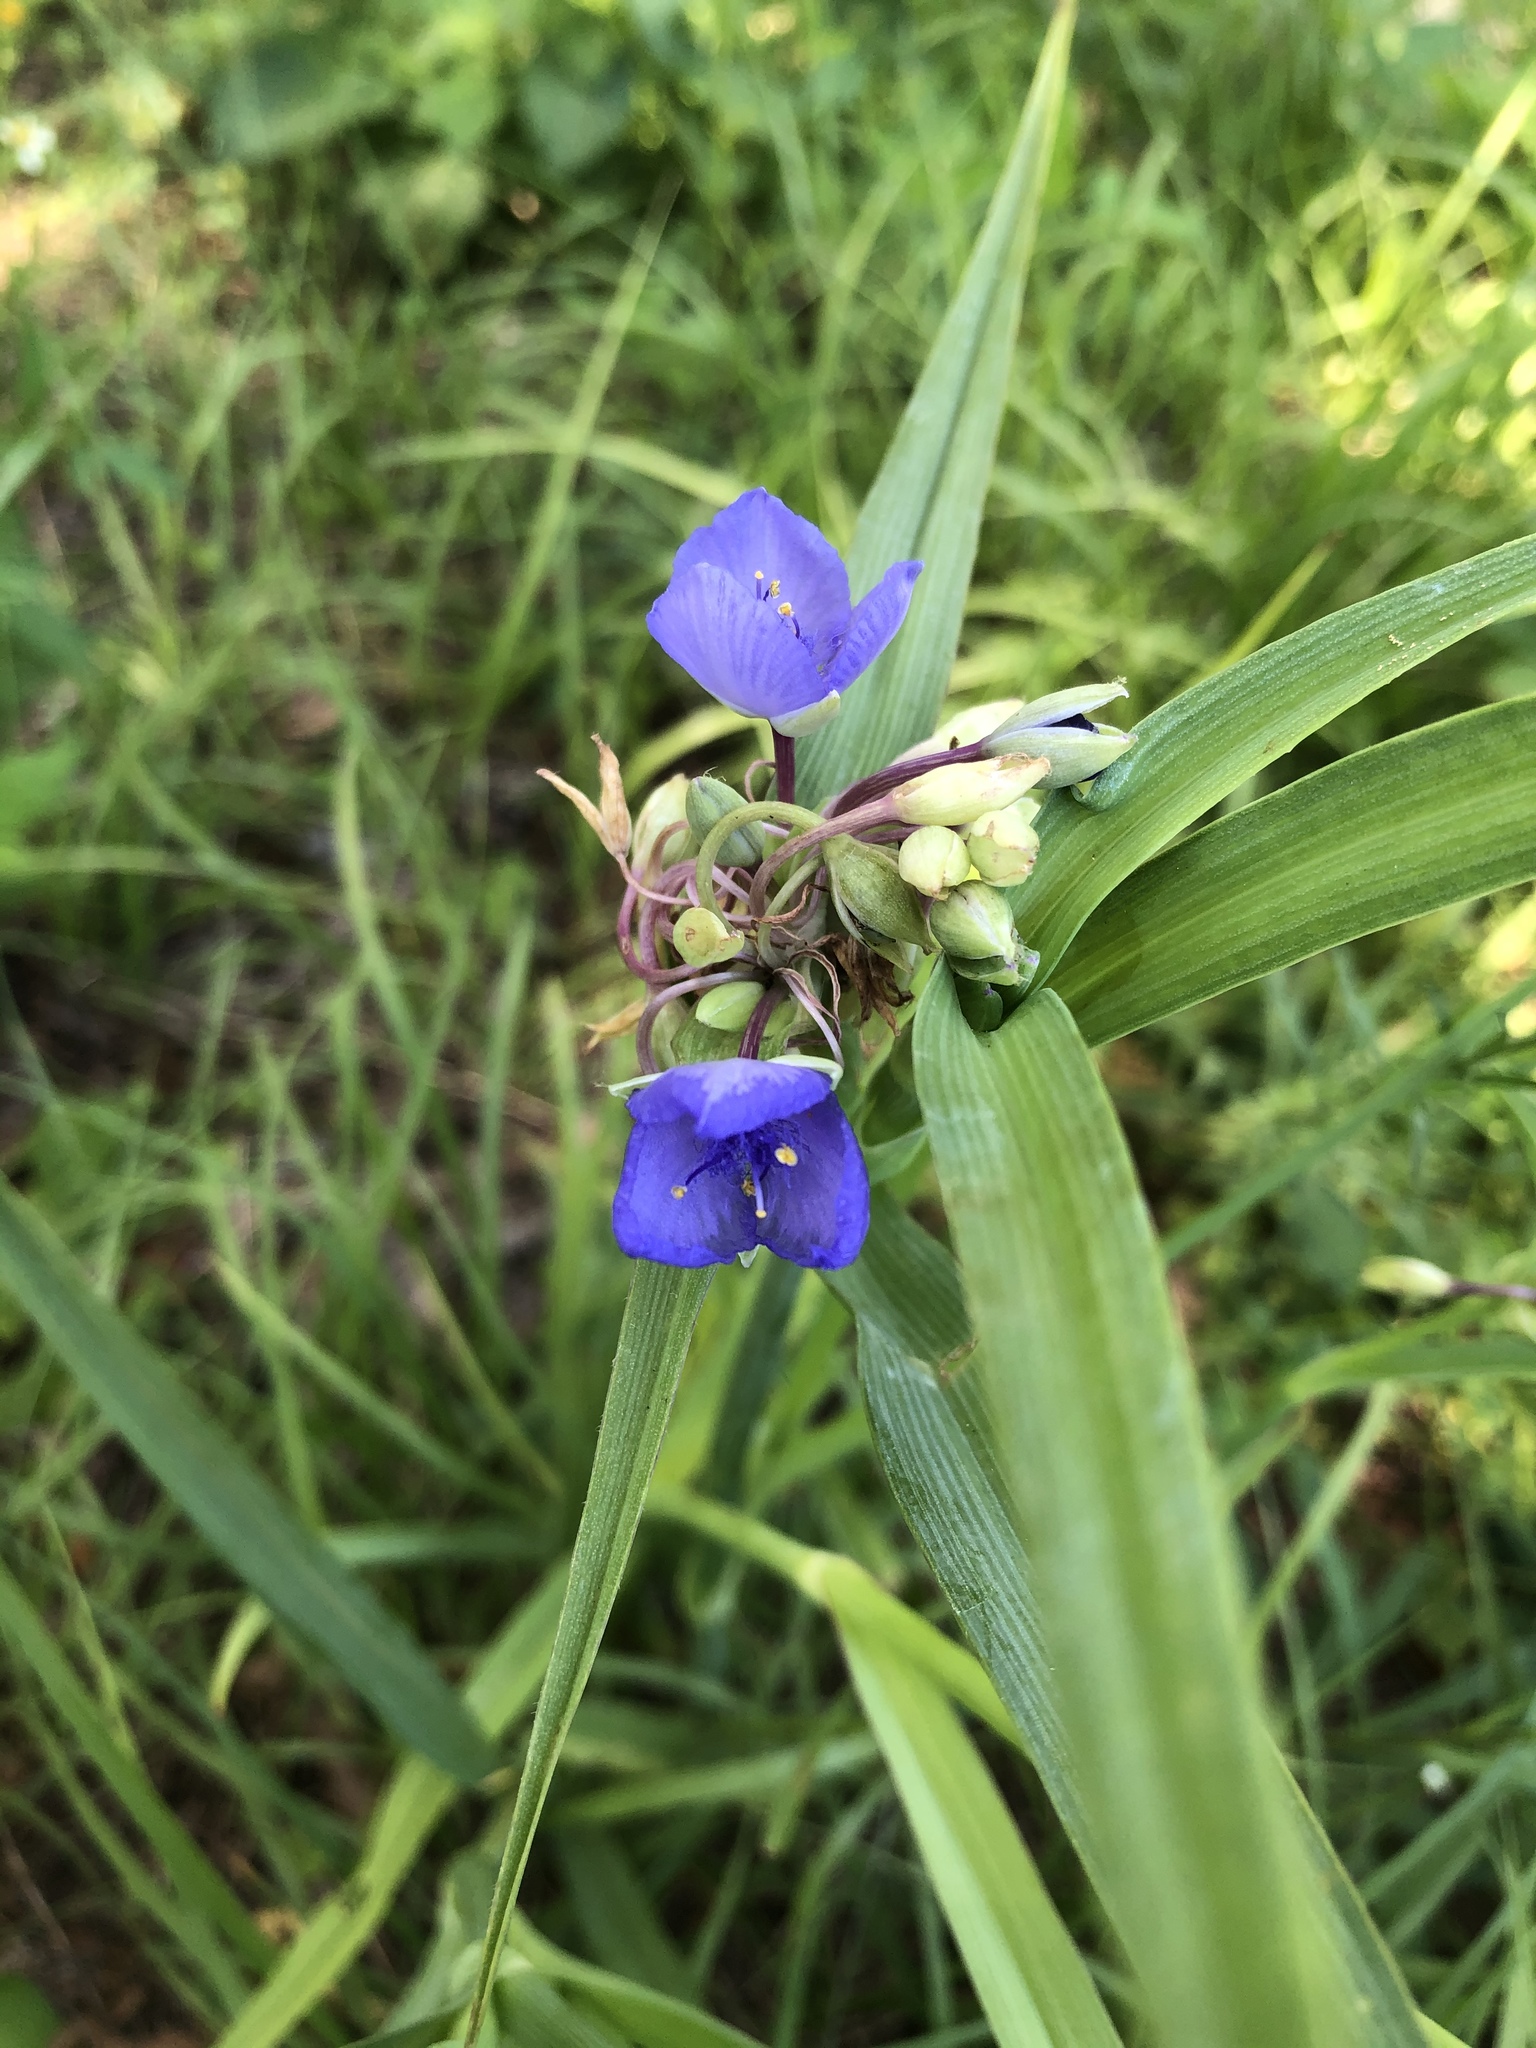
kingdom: Plantae
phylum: Tracheophyta
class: Liliopsida
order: Commelinales
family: Commelinaceae
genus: Tradescantia
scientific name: Tradescantia ohiensis
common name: Ohio spiderwort
